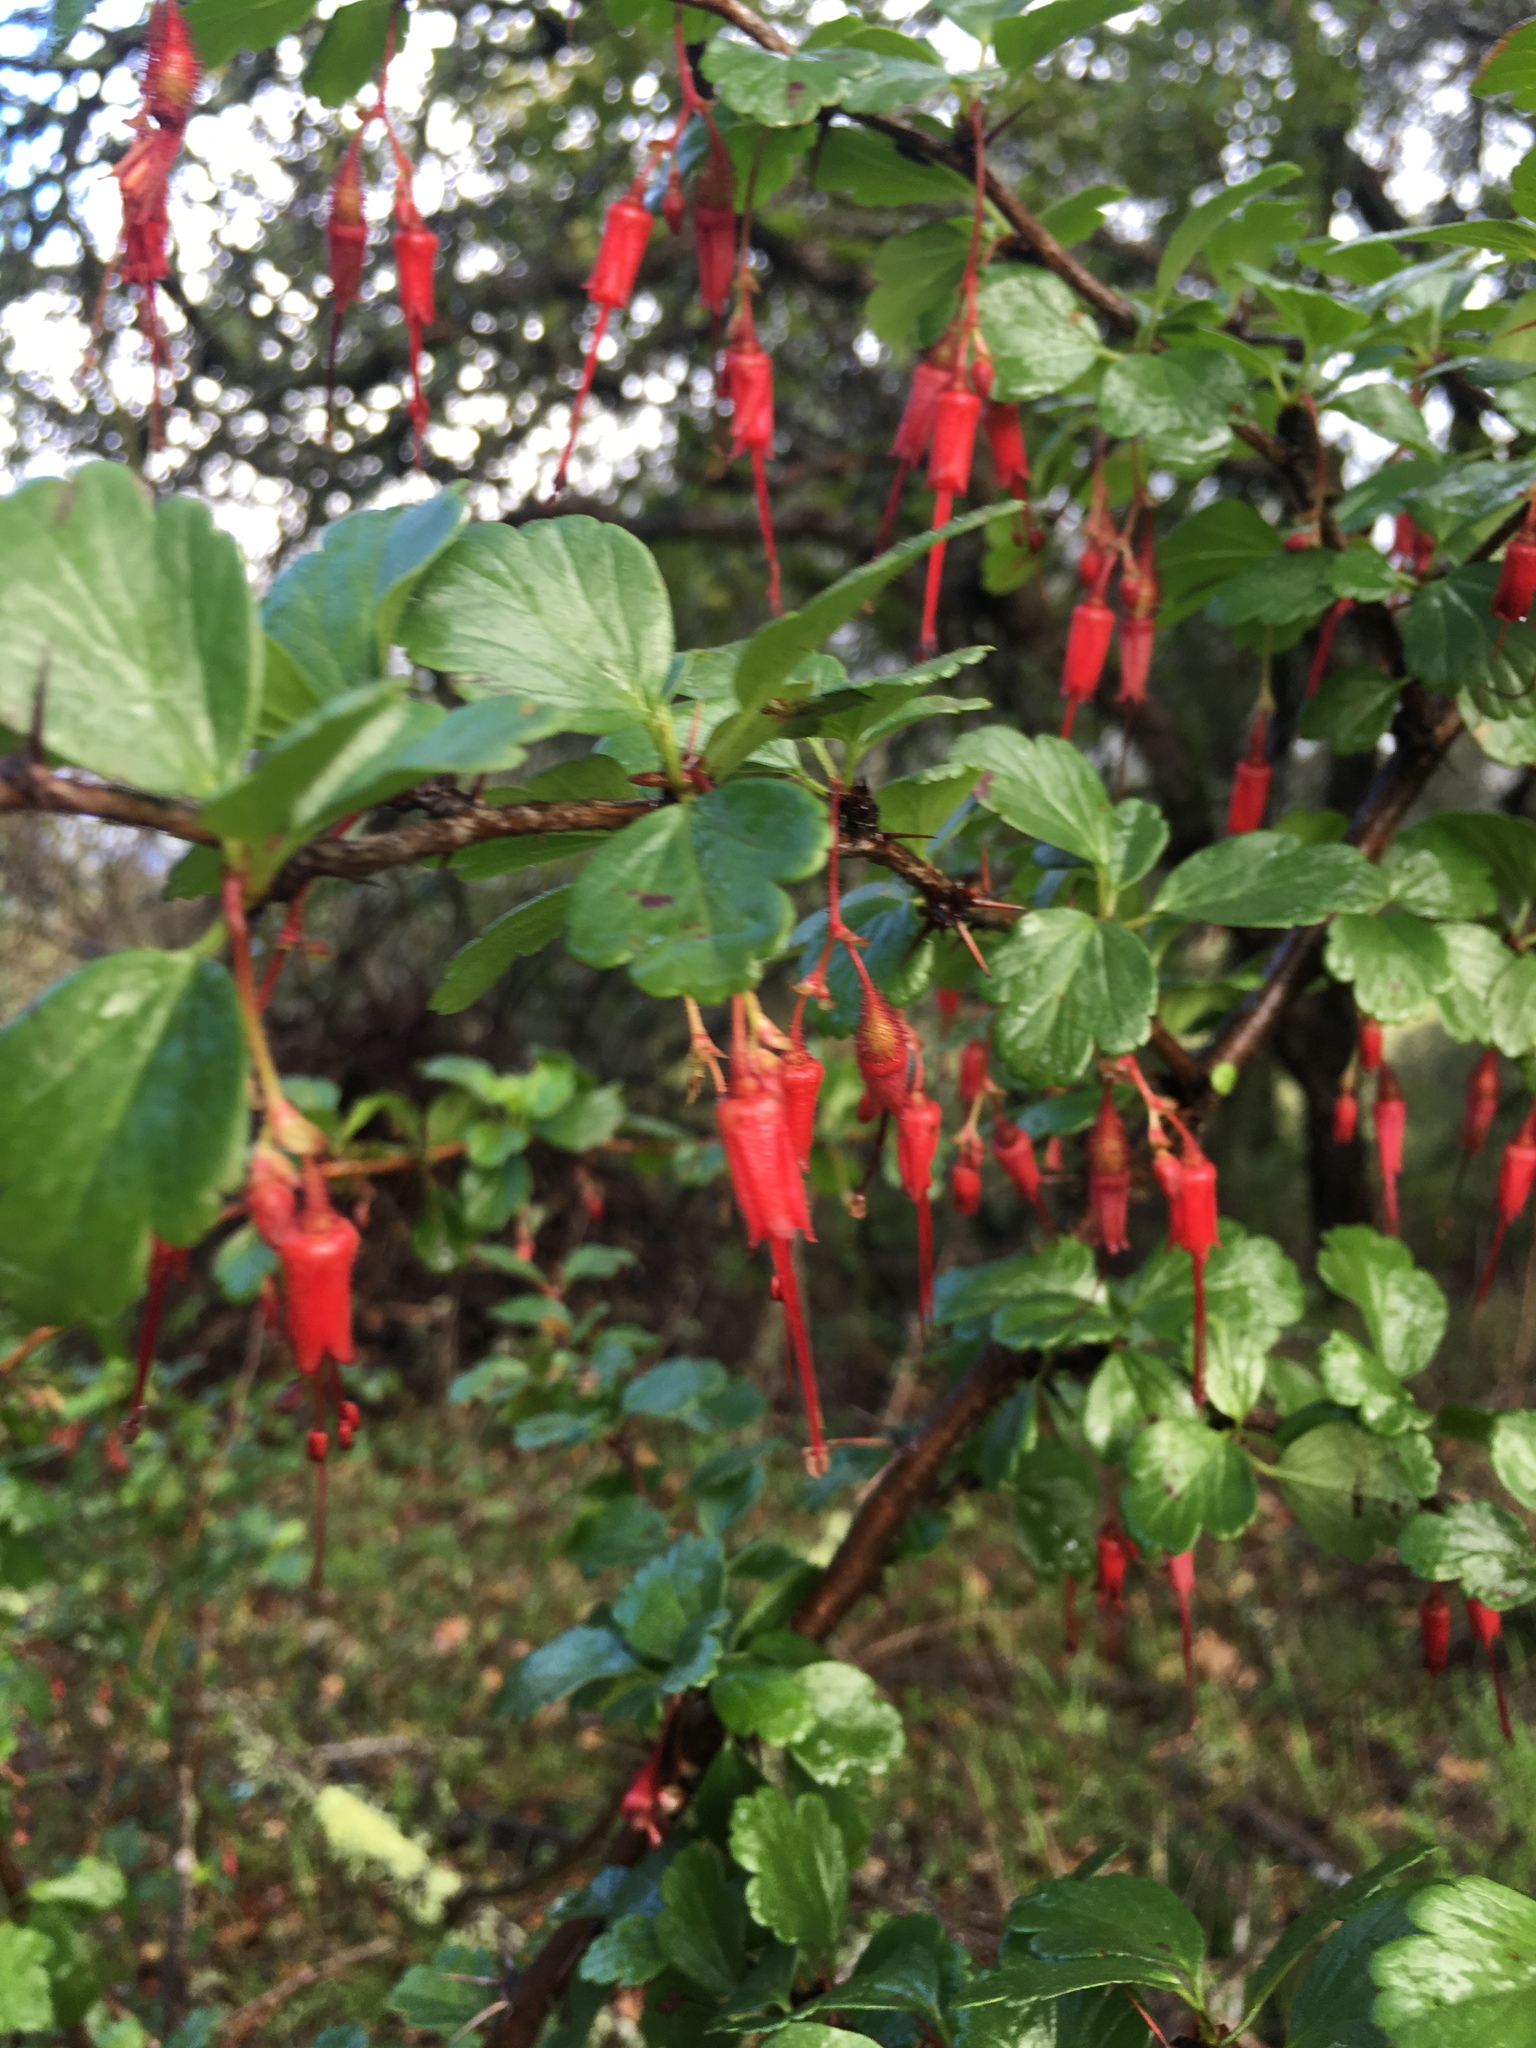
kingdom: Plantae
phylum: Tracheophyta
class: Magnoliopsida
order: Saxifragales
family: Grossulariaceae
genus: Ribes
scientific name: Ribes speciosum
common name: Fuchsia-flower gooseberry
